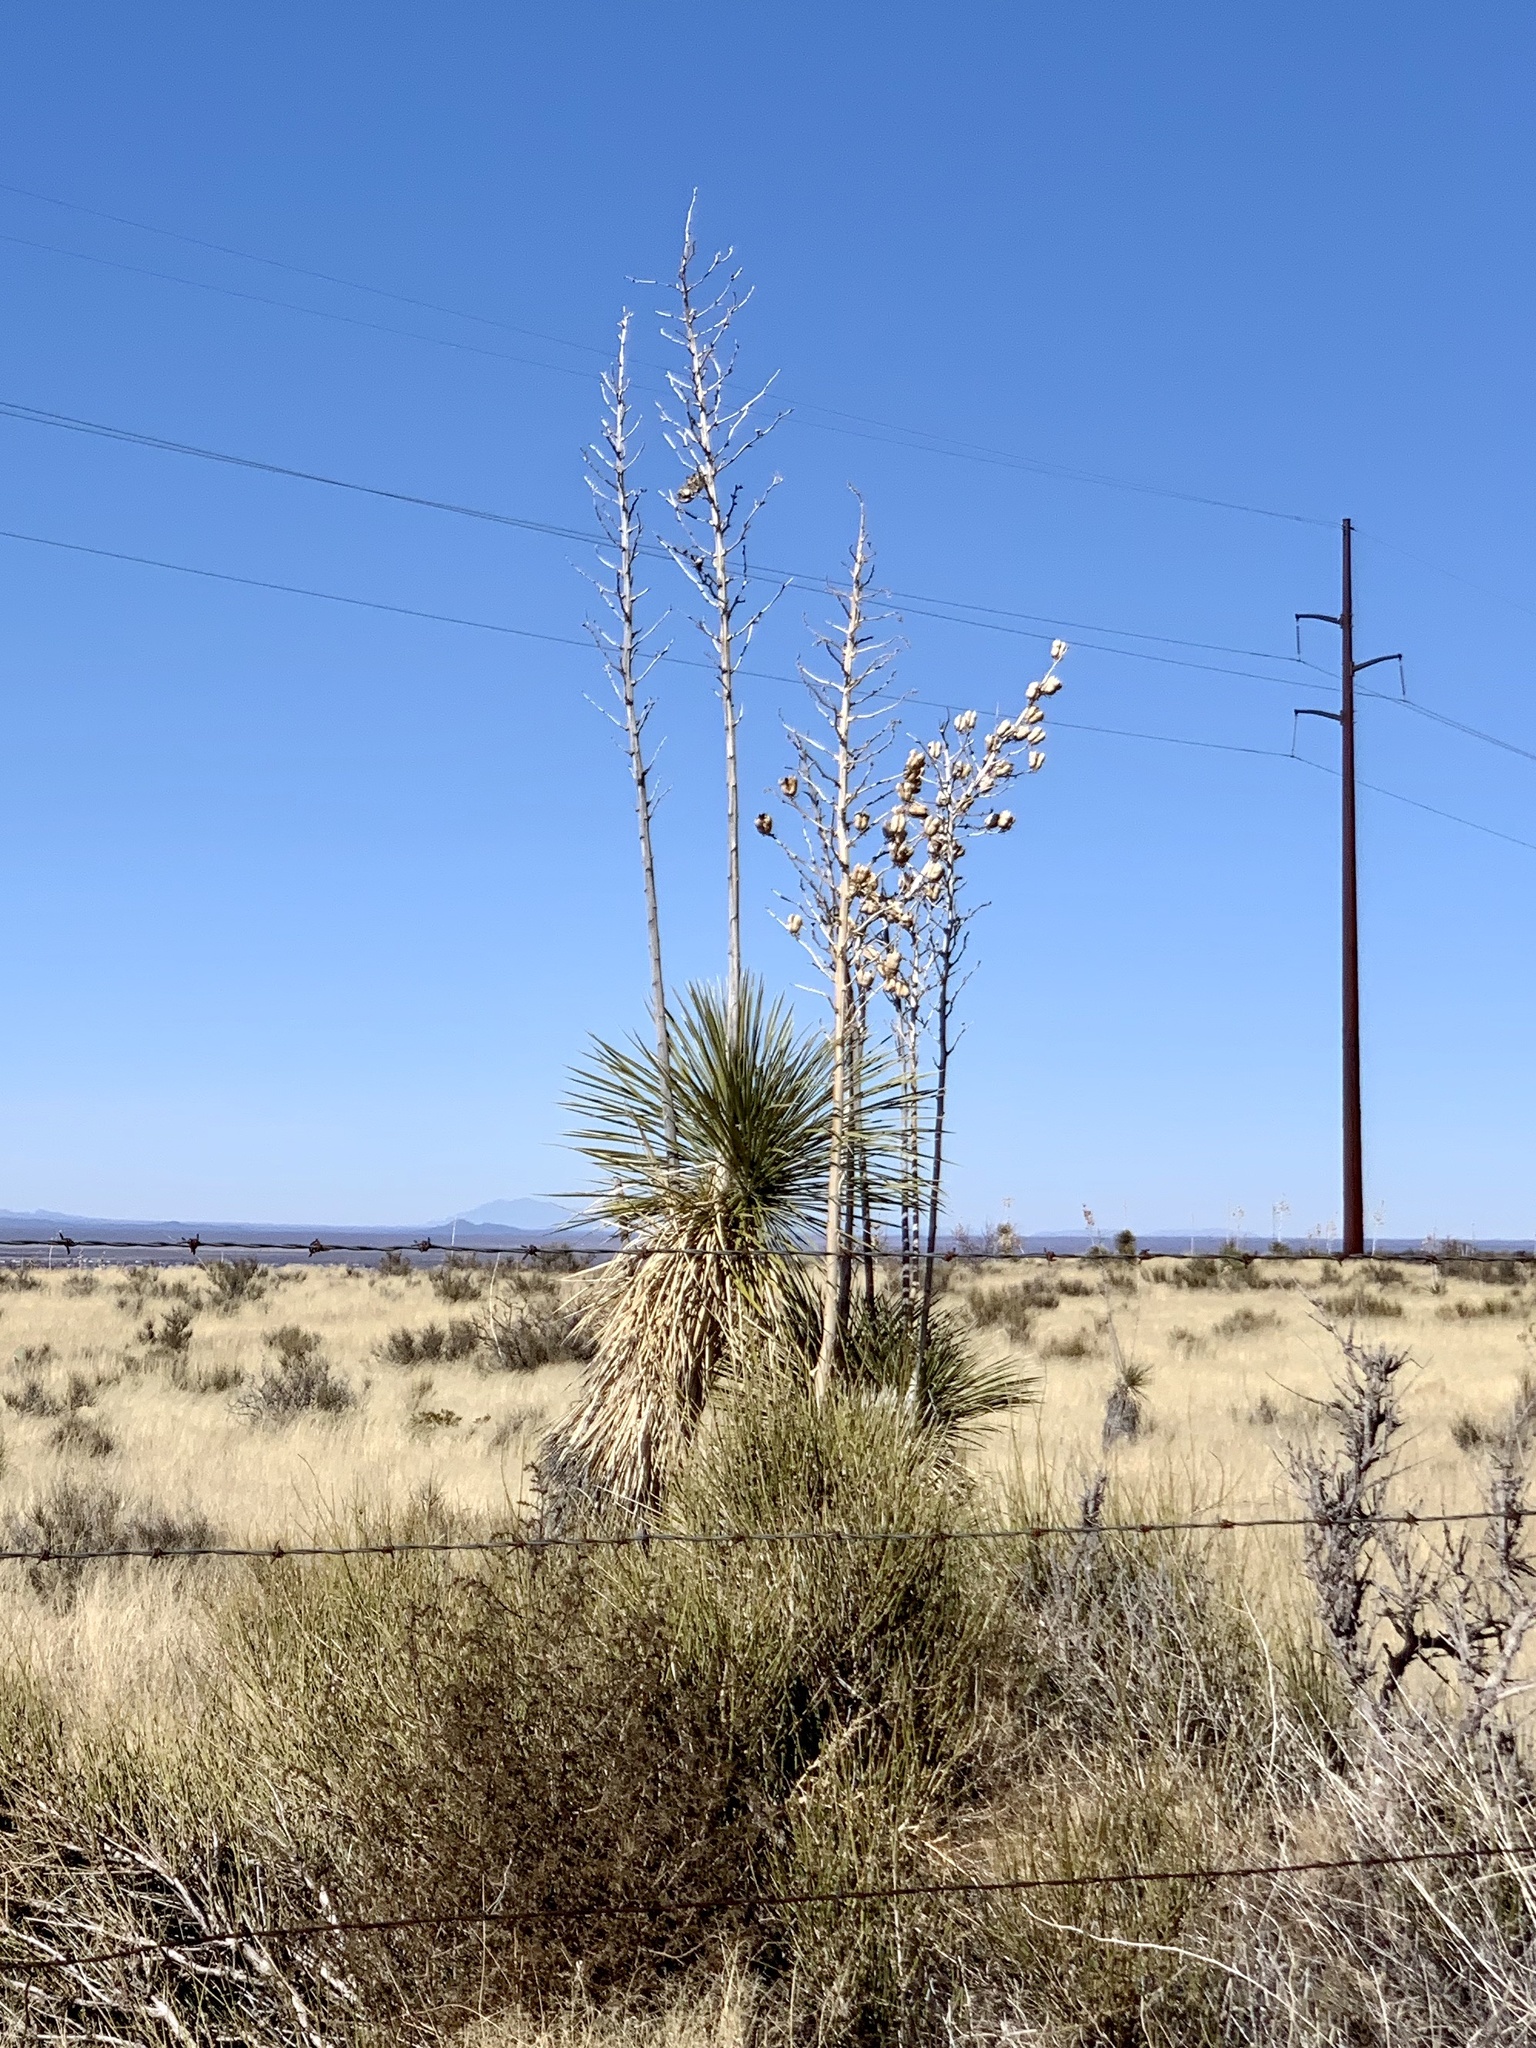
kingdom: Plantae
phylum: Tracheophyta
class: Liliopsida
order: Asparagales
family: Asparagaceae
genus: Yucca
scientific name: Yucca elata
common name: Palmella
